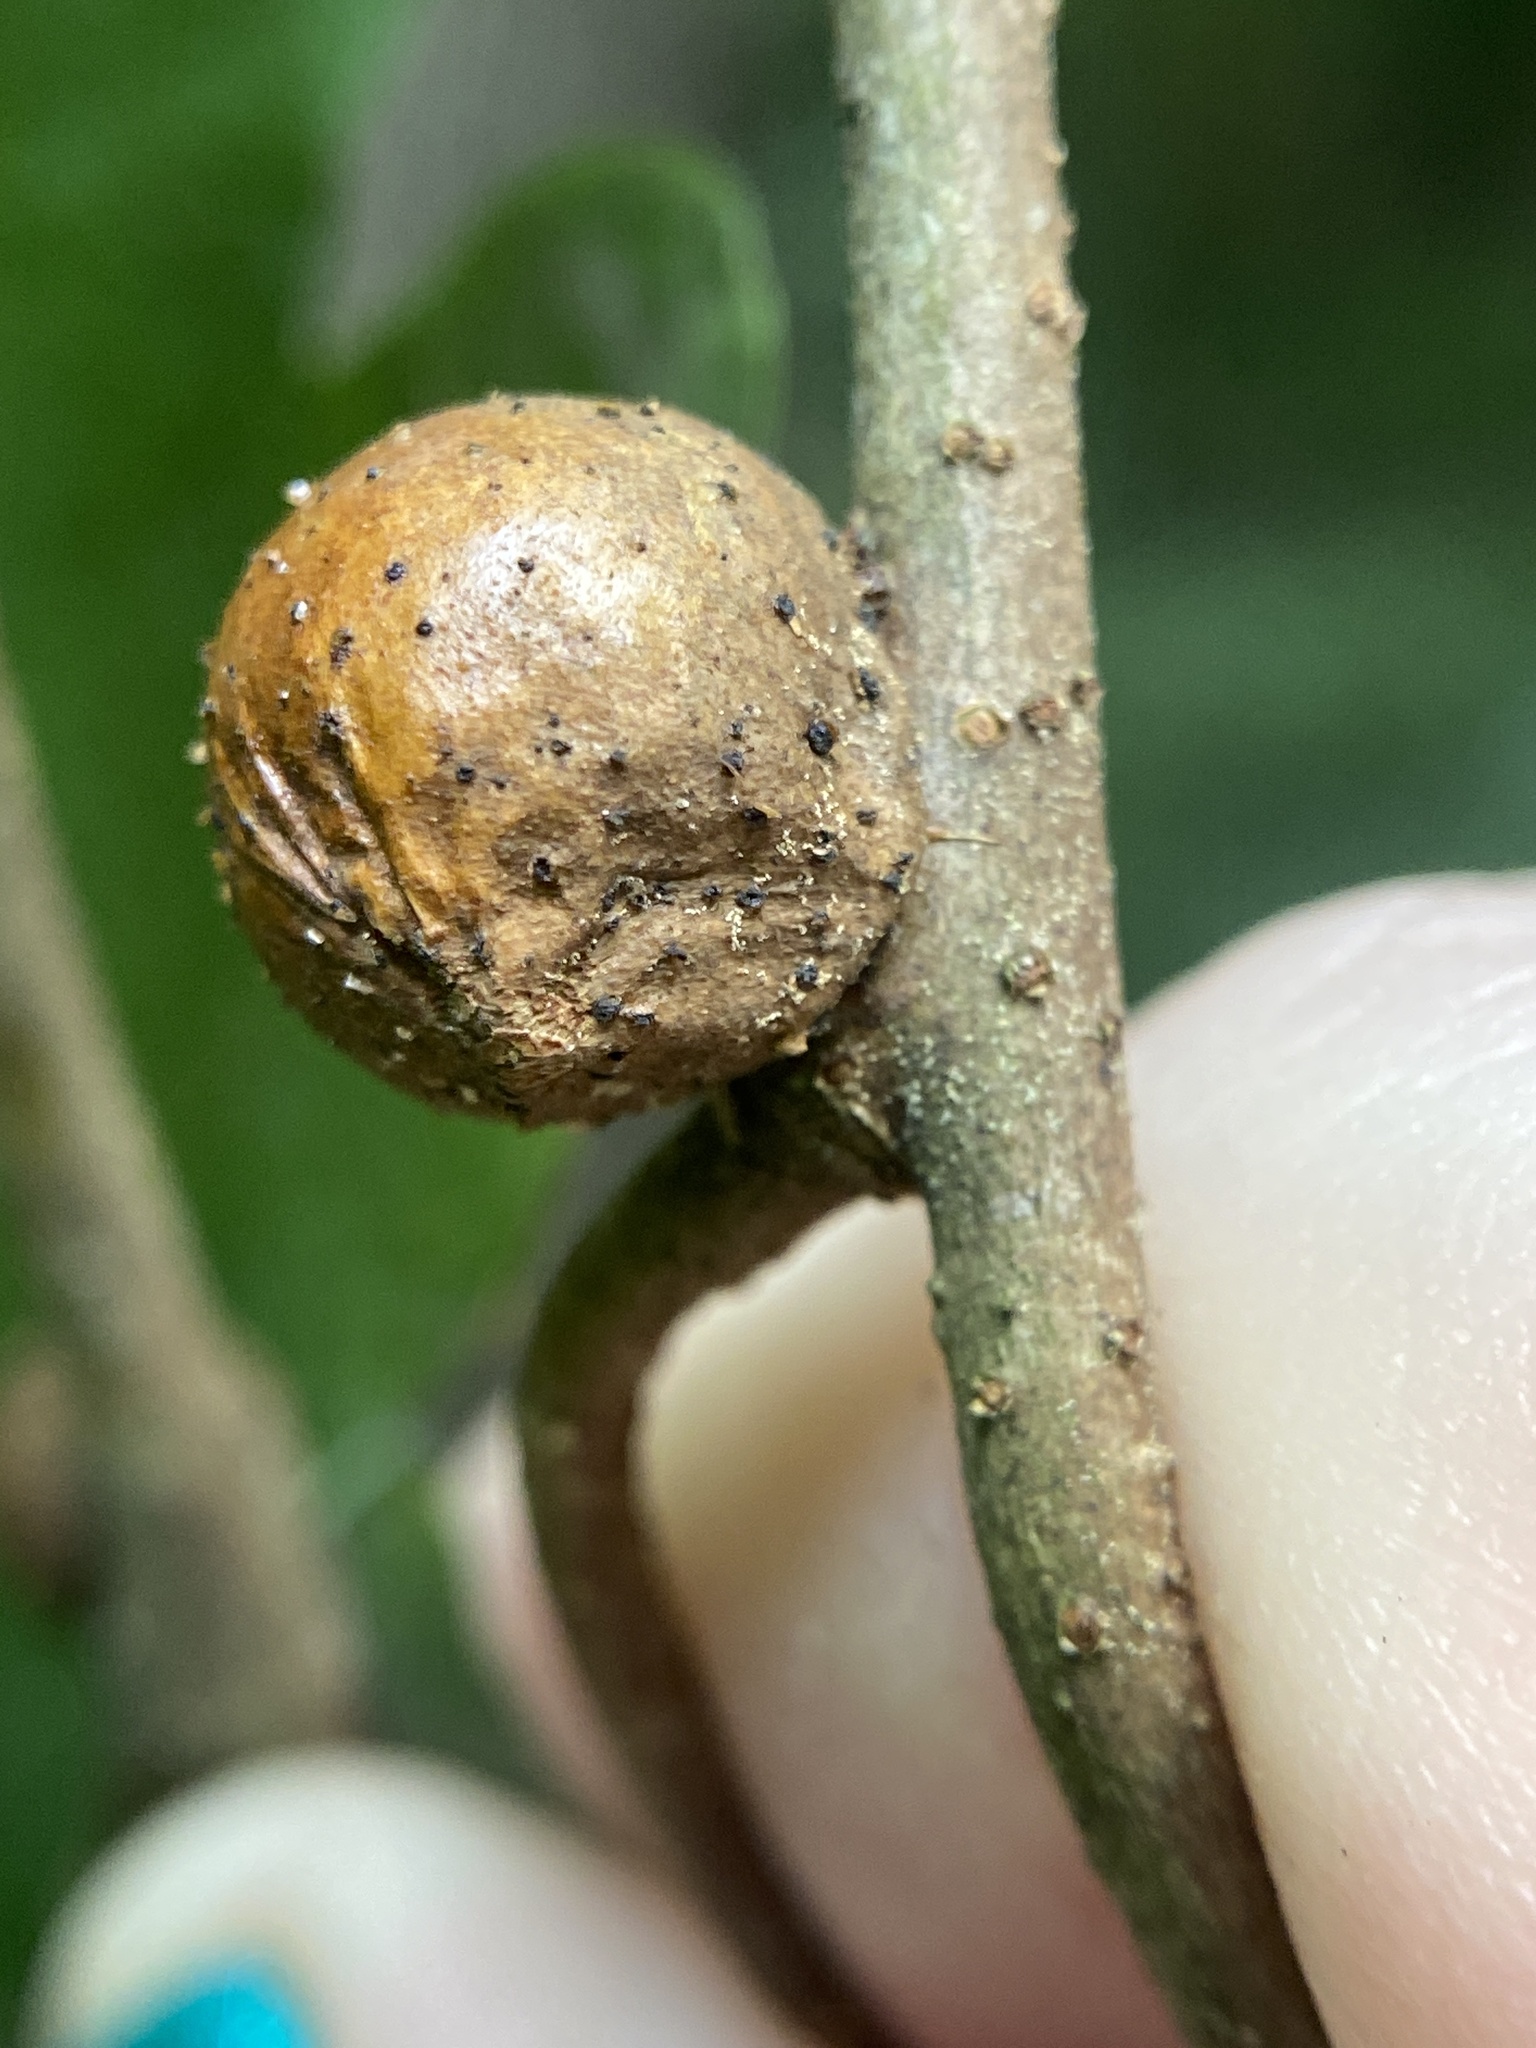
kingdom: Animalia
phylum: Arthropoda
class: Insecta
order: Hymenoptera
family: Cynipidae
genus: Disholcaspis
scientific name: Disholcaspis quercusglobulus
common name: Round bullet gall wasp
